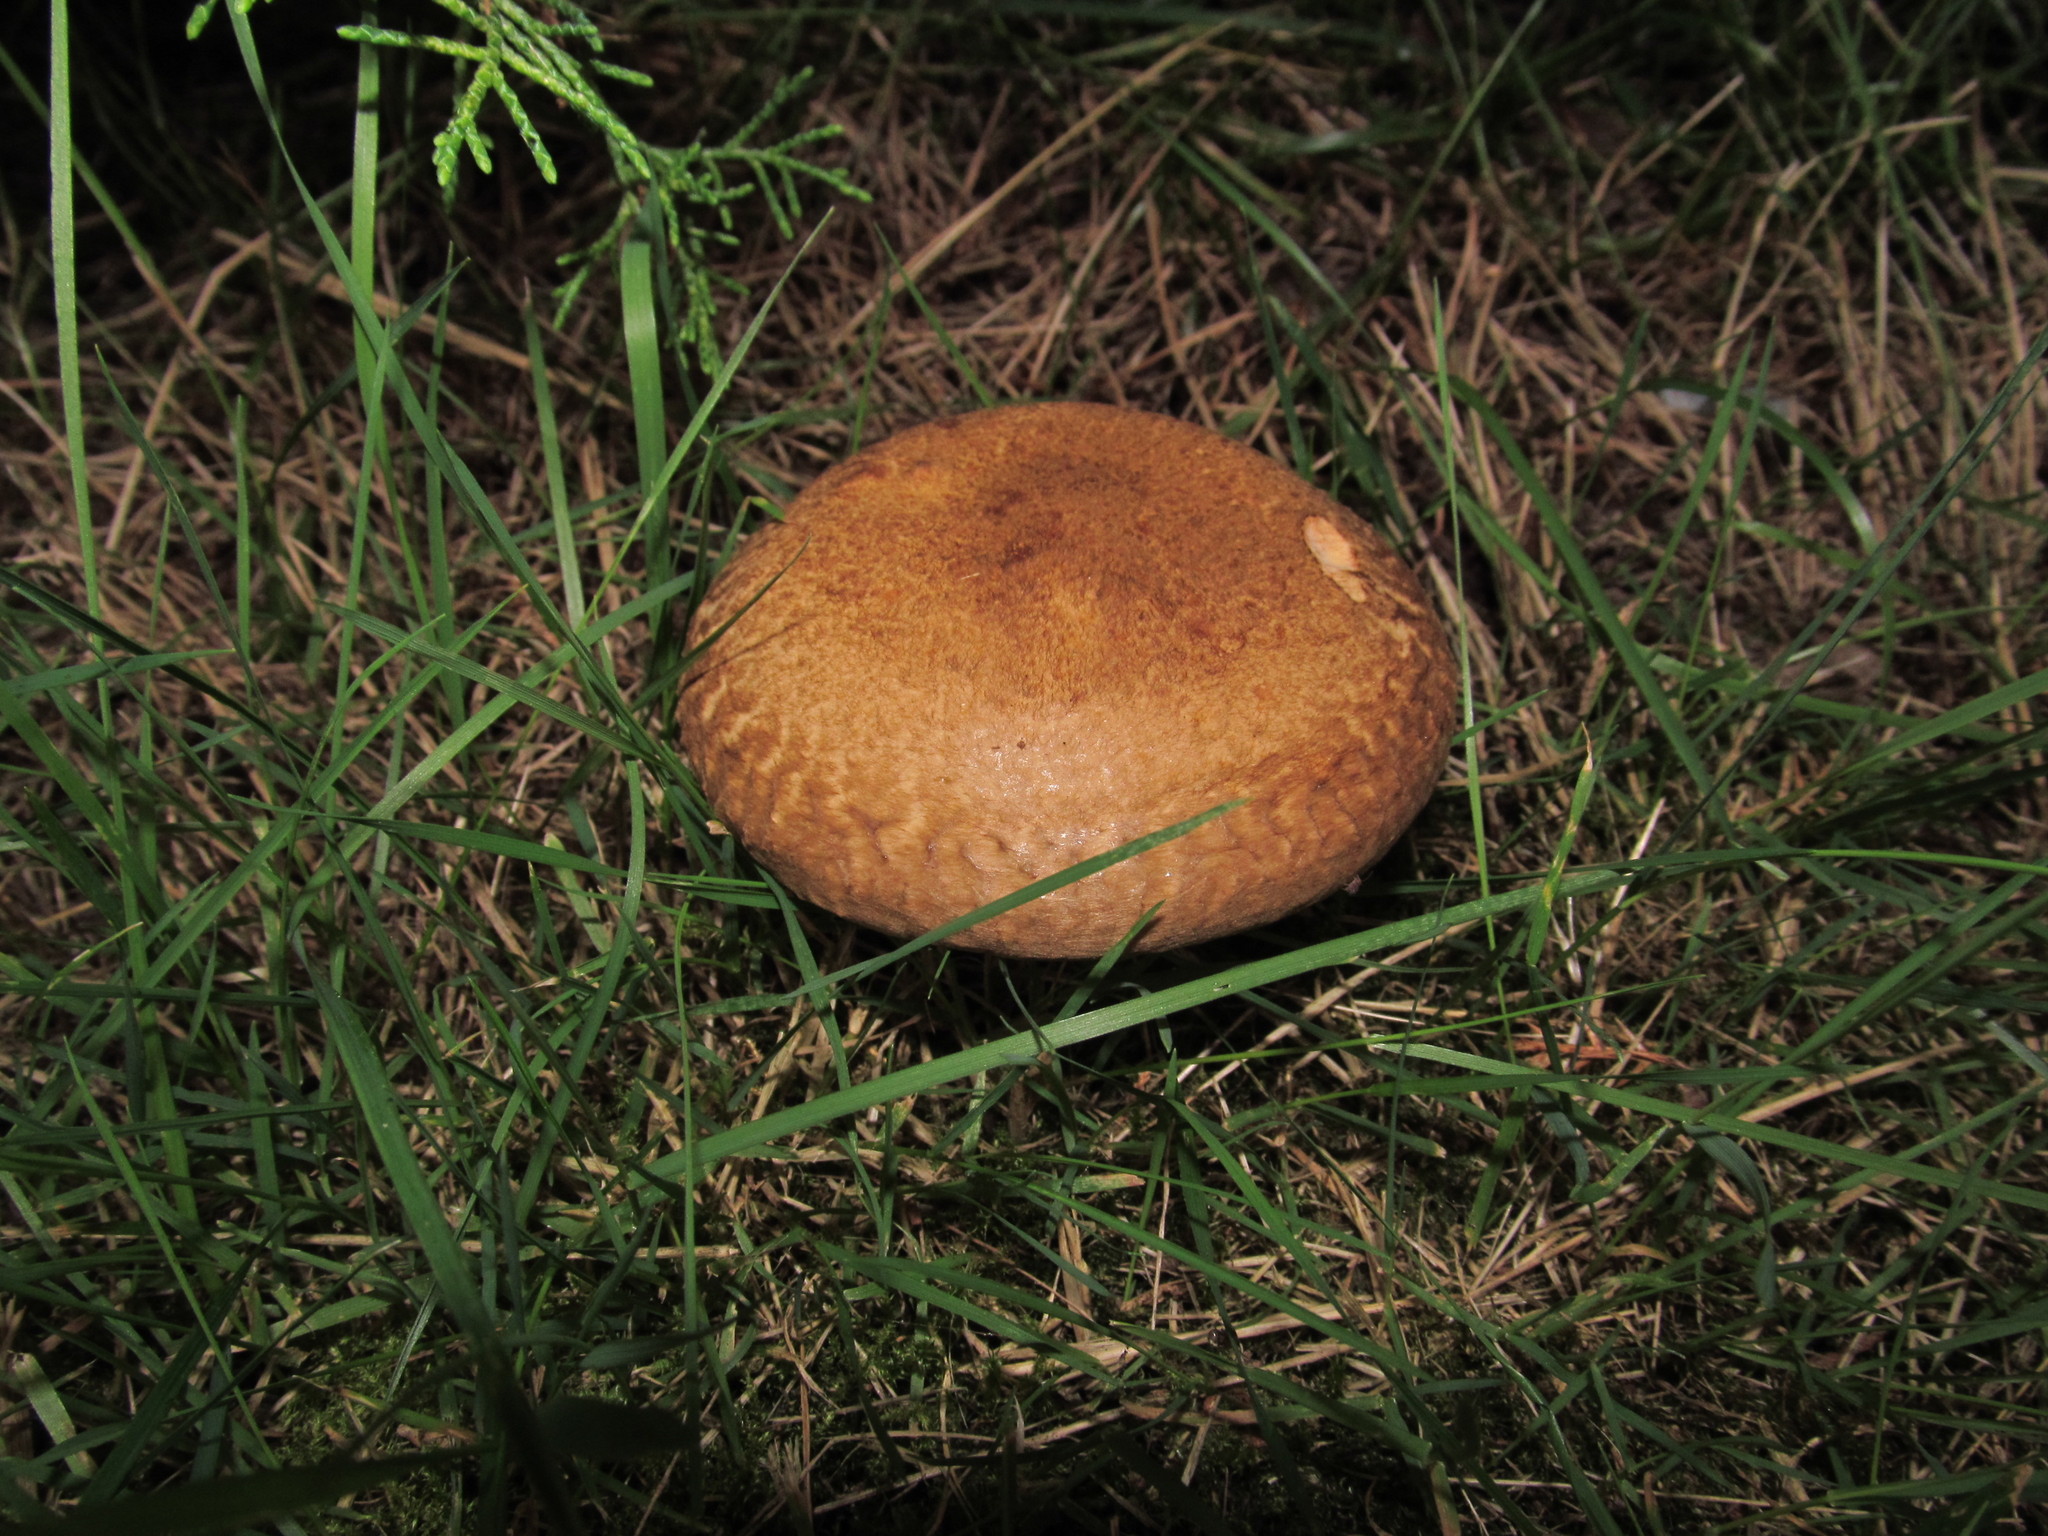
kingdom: Fungi
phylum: Basidiomycota
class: Agaricomycetes
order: Boletales
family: Paxillaceae
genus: Paxillus
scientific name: Paxillus involutus
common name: Brown roll rim
